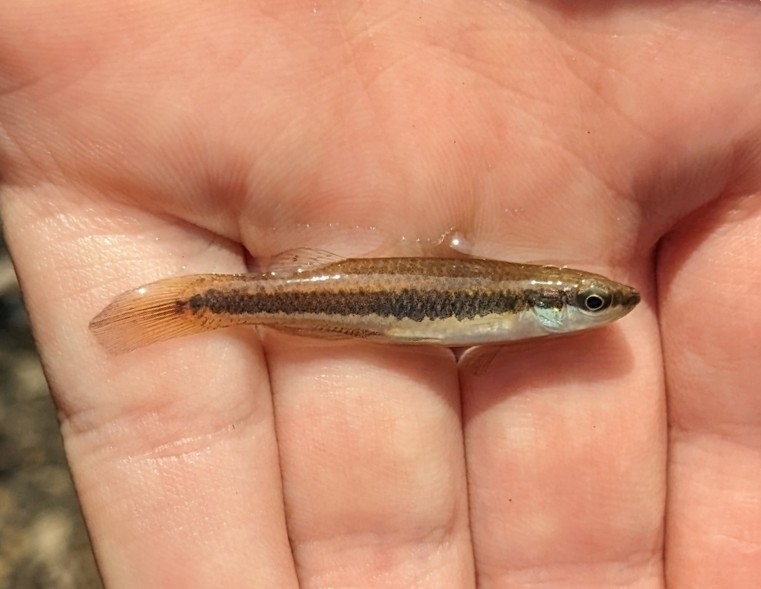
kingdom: Animalia
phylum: Chordata
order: Cyprinodontiformes
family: Fundulidae
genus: Fundulus
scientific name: Fundulus notatus
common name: Blackstripe topminnow
